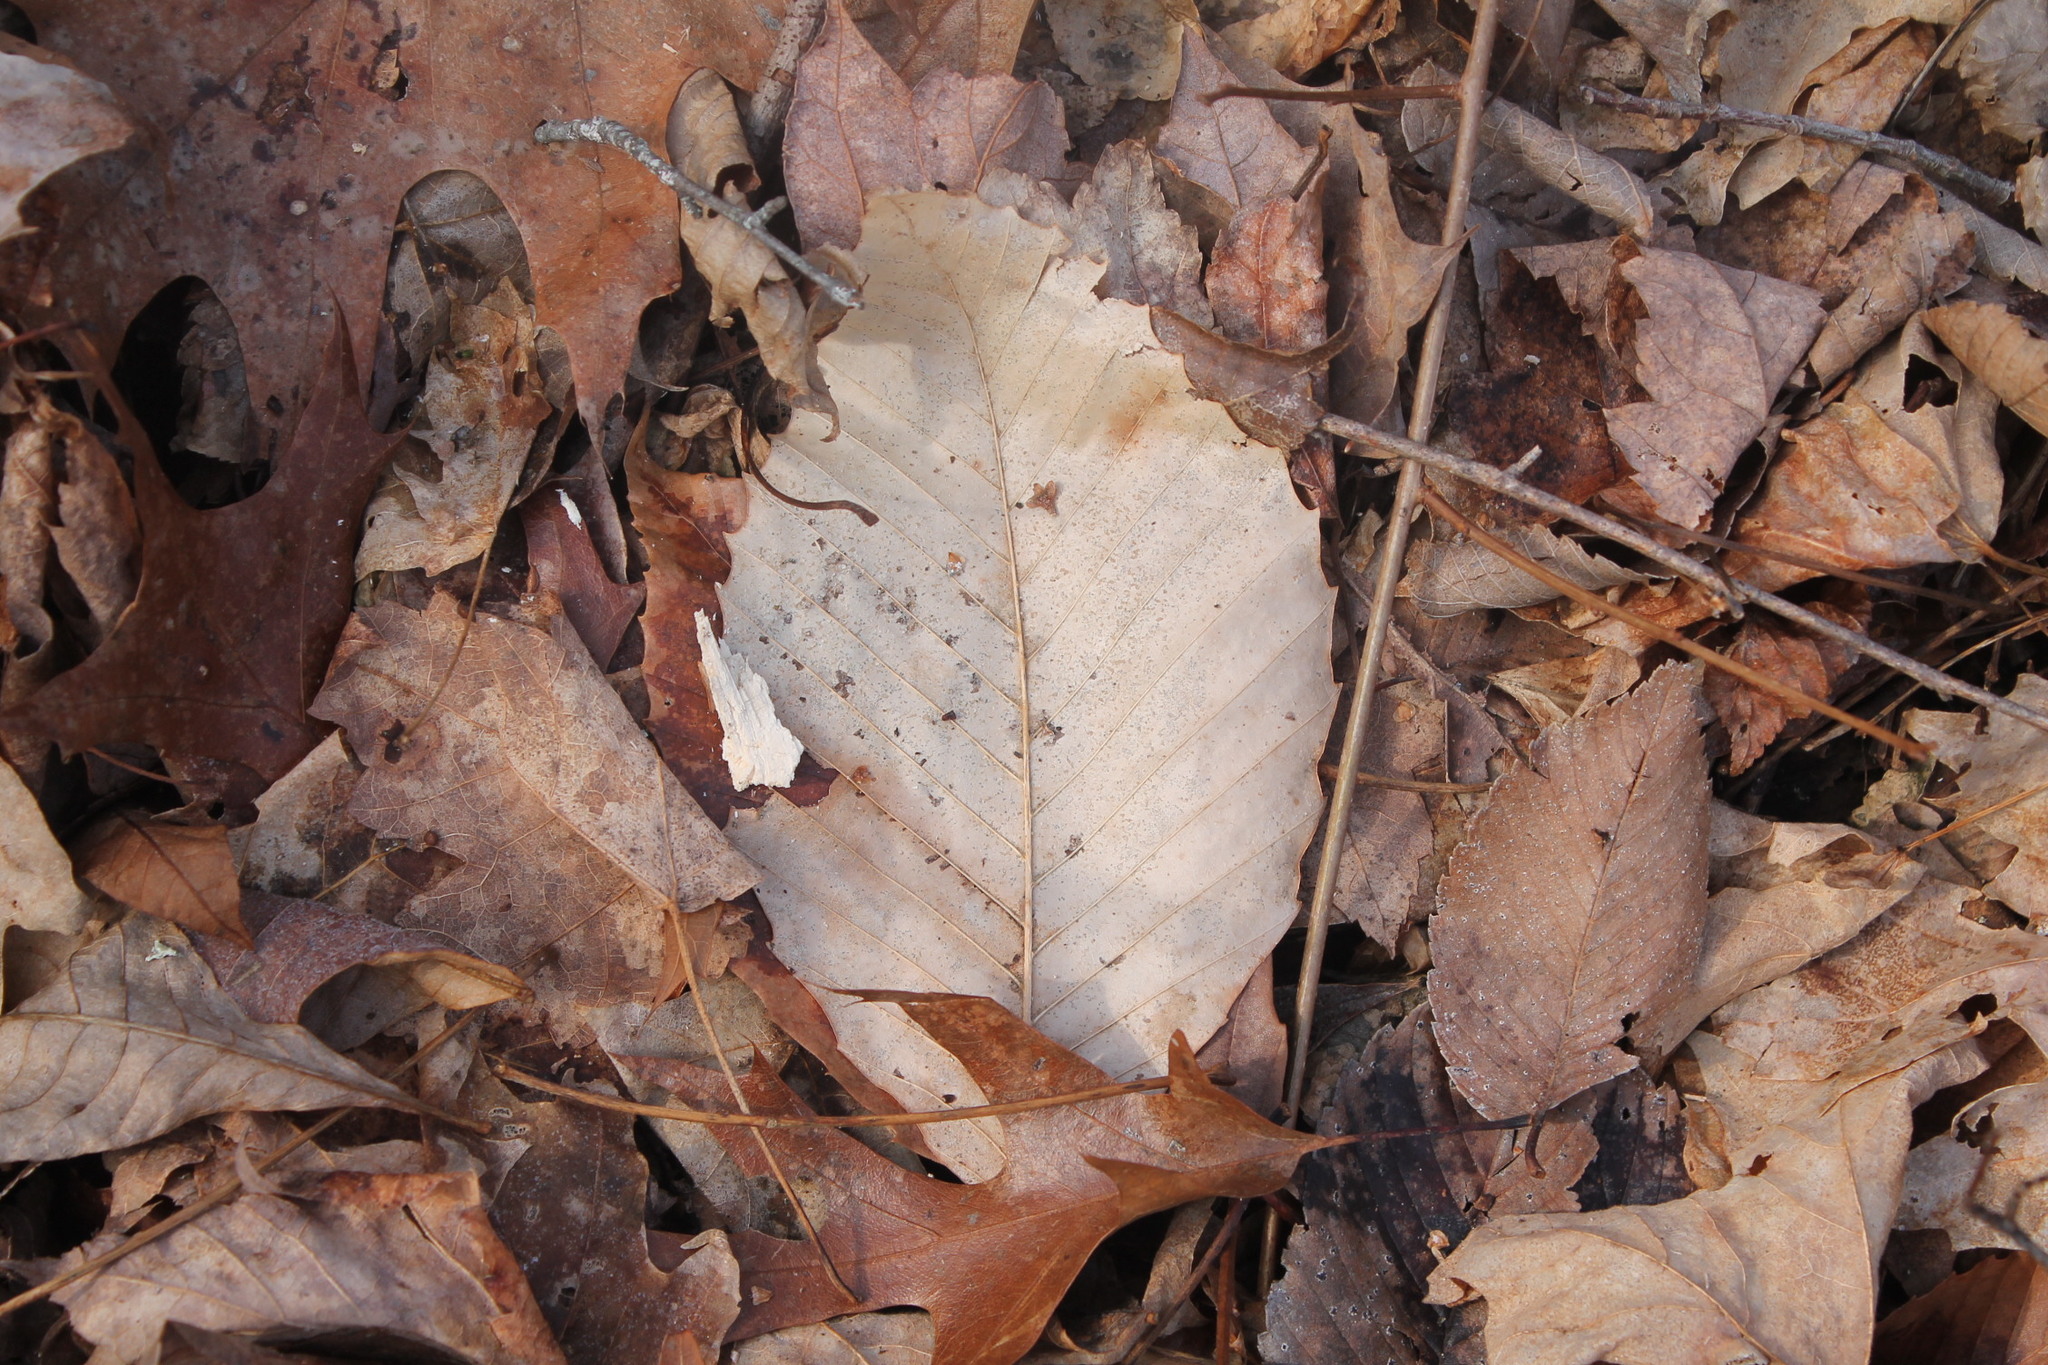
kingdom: Plantae
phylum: Tracheophyta
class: Magnoliopsida
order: Fagales
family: Fagaceae
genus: Fagus
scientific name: Fagus grandifolia
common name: American beech
